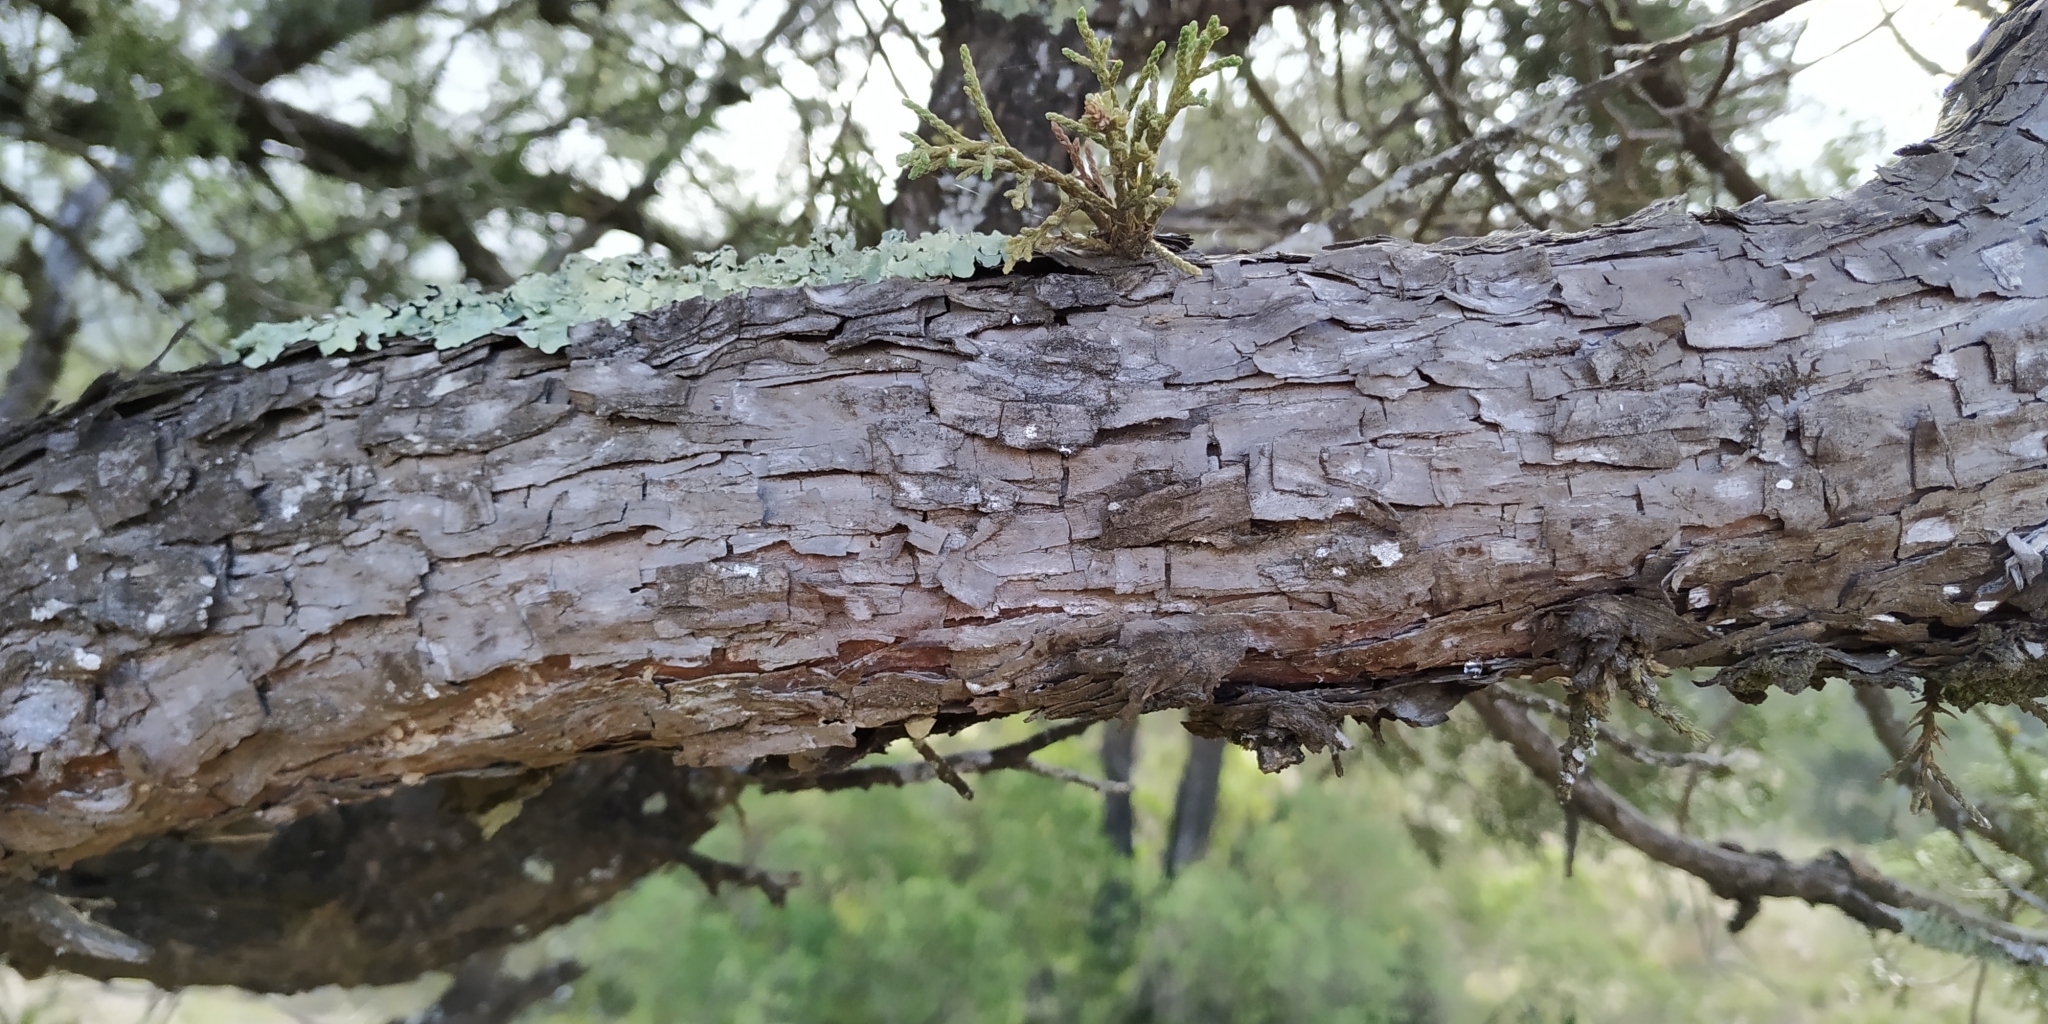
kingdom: Plantae
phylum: Tracheophyta
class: Pinopsida
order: Pinales
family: Cupressaceae
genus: Juniperus
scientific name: Juniperus deppeana
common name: Alligator juniper
